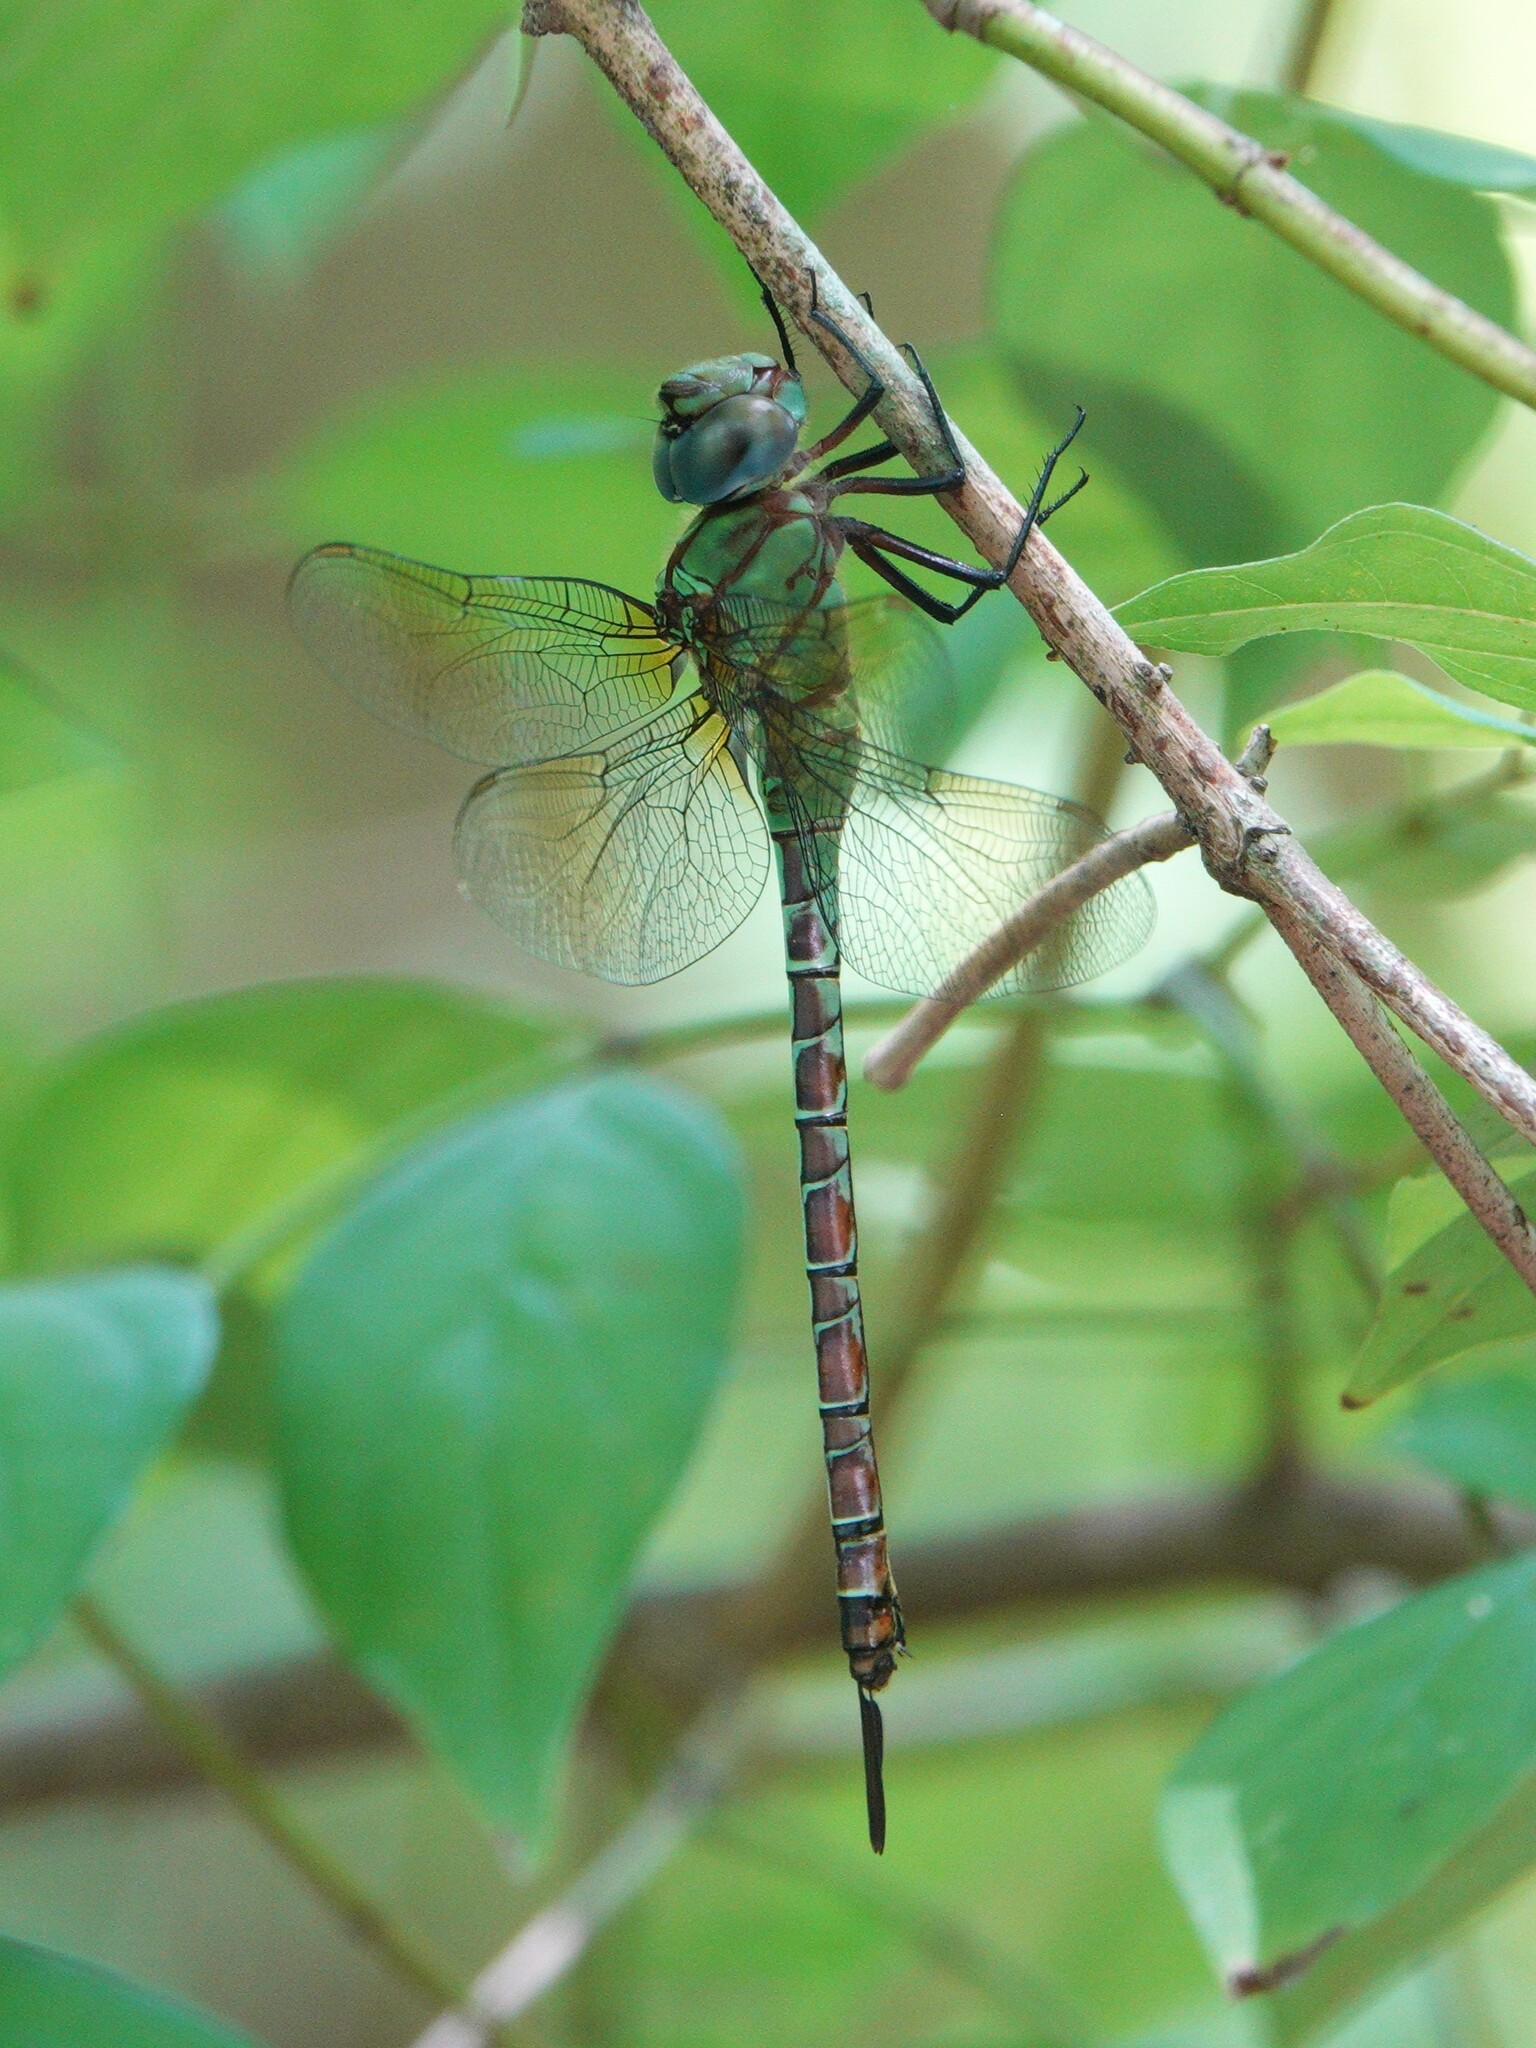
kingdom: Animalia
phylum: Arthropoda
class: Insecta
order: Odonata
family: Aeshnidae
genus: Coryphaeschna
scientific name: Coryphaeschna adnexa
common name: Blue-faced darner
